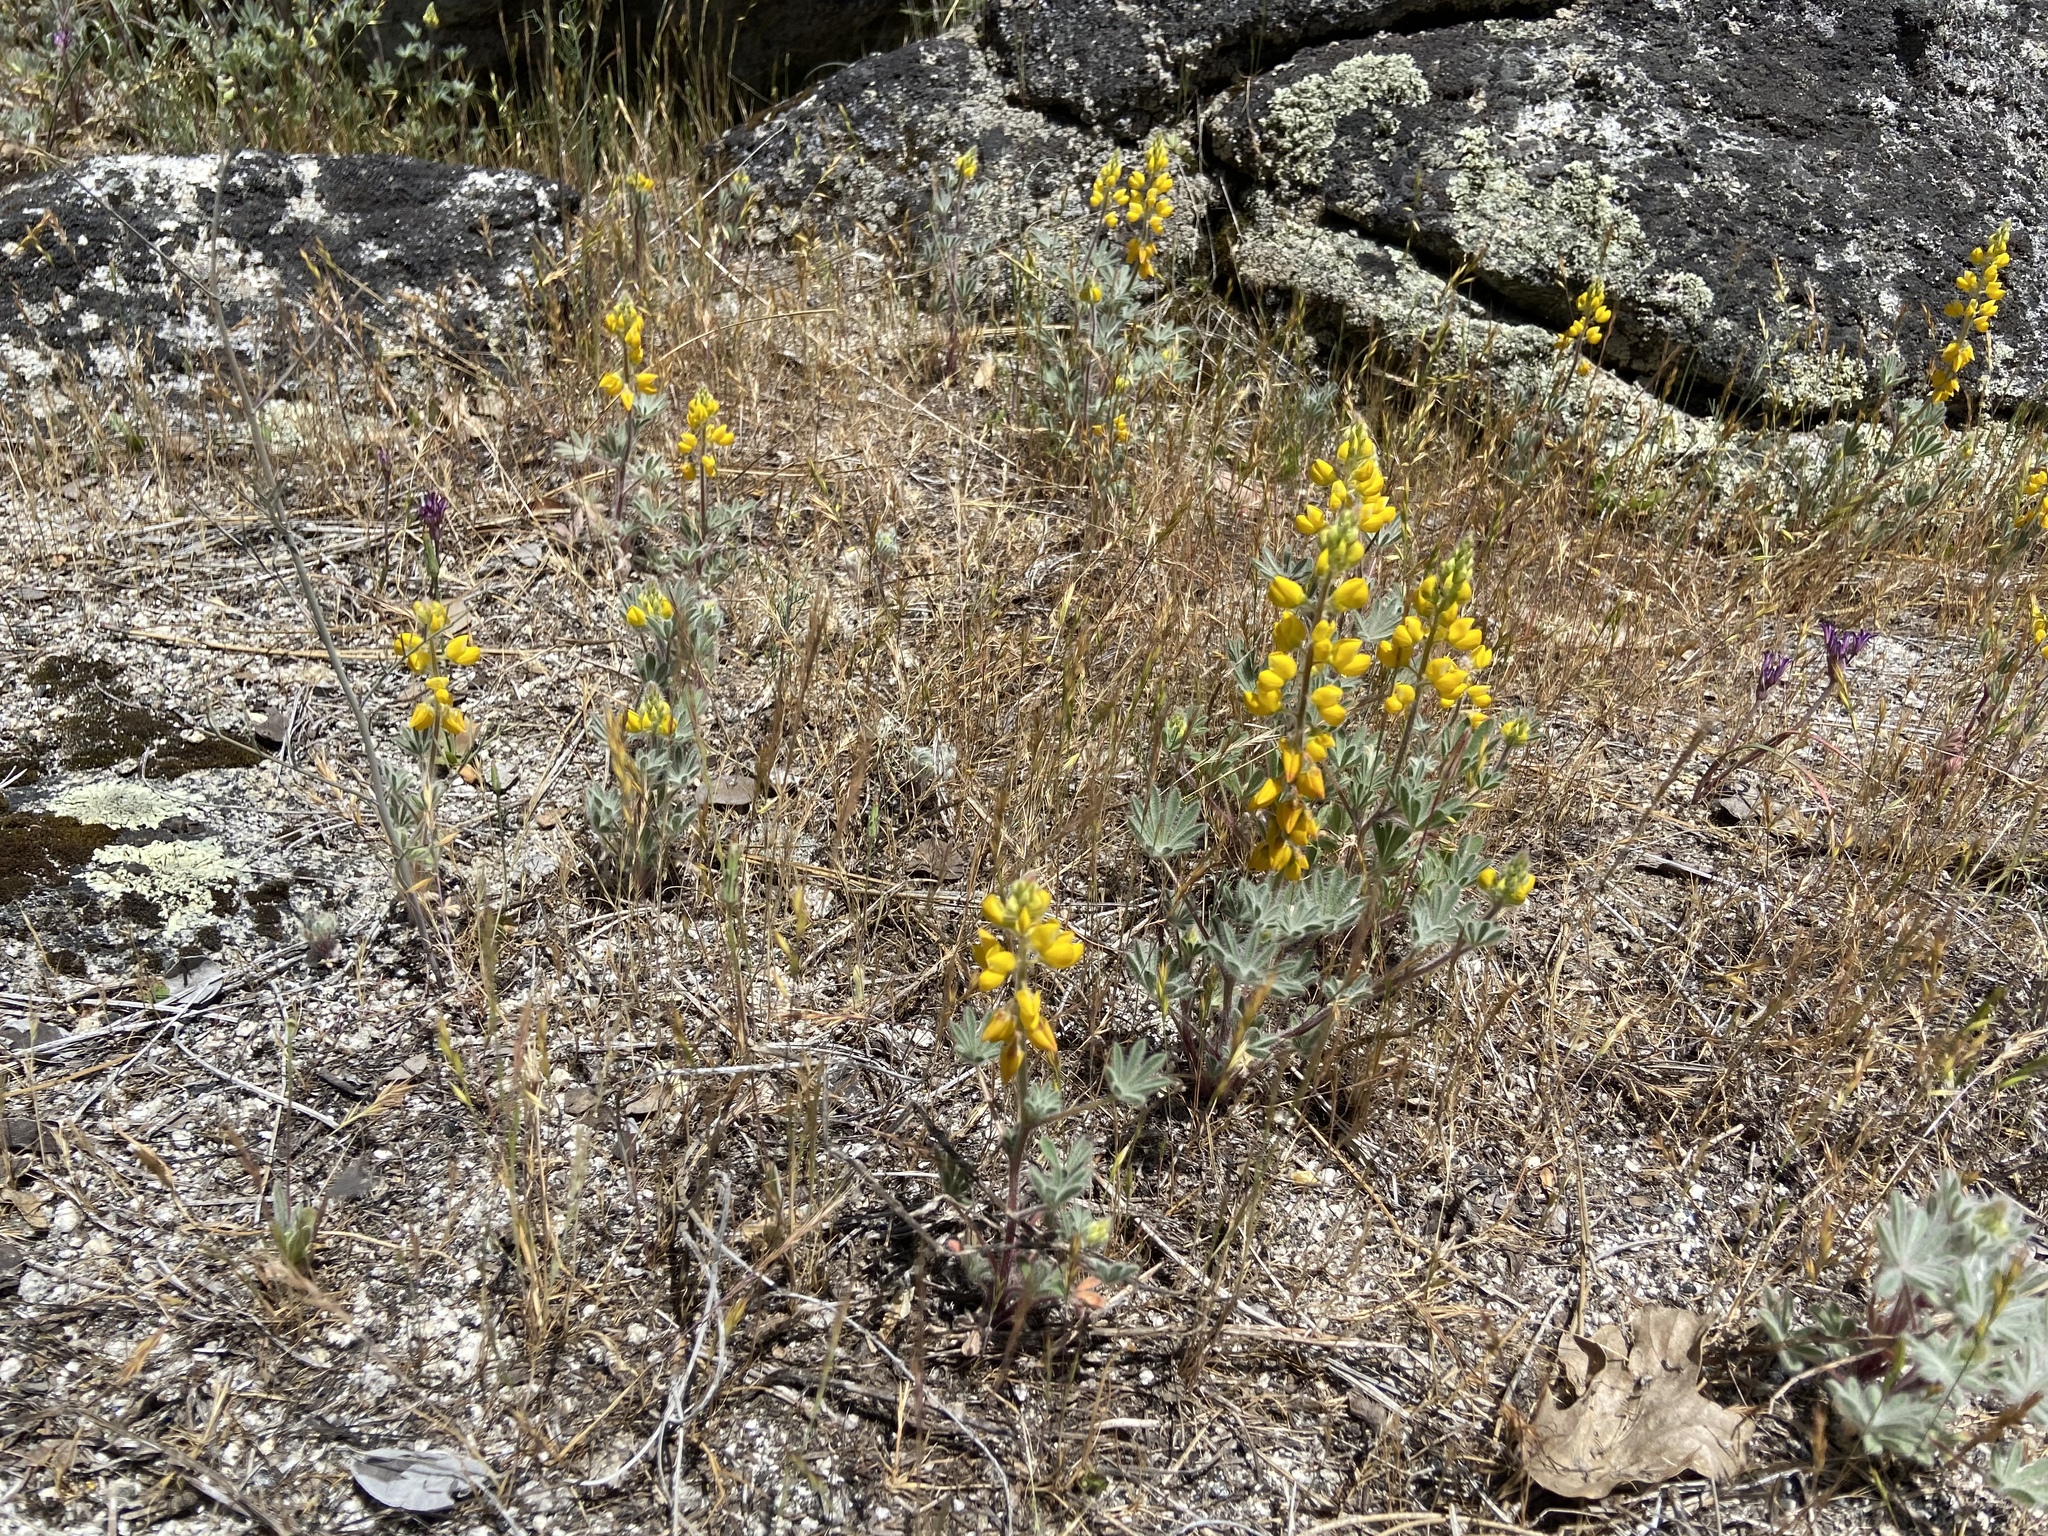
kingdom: Plantae
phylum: Tracheophyta
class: Magnoliopsida
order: Fabales
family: Fabaceae
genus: Lupinus
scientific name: Lupinus citrinus
